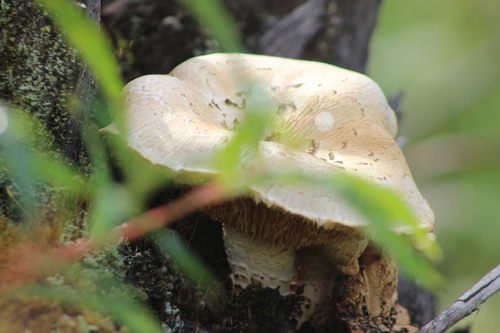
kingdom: Fungi
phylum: Basidiomycota
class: Agaricomycetes
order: Gloeophyllales
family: Gloeophyllaceae
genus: Neolentinus
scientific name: Neolentinus lepideus
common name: Scaly sawgill
